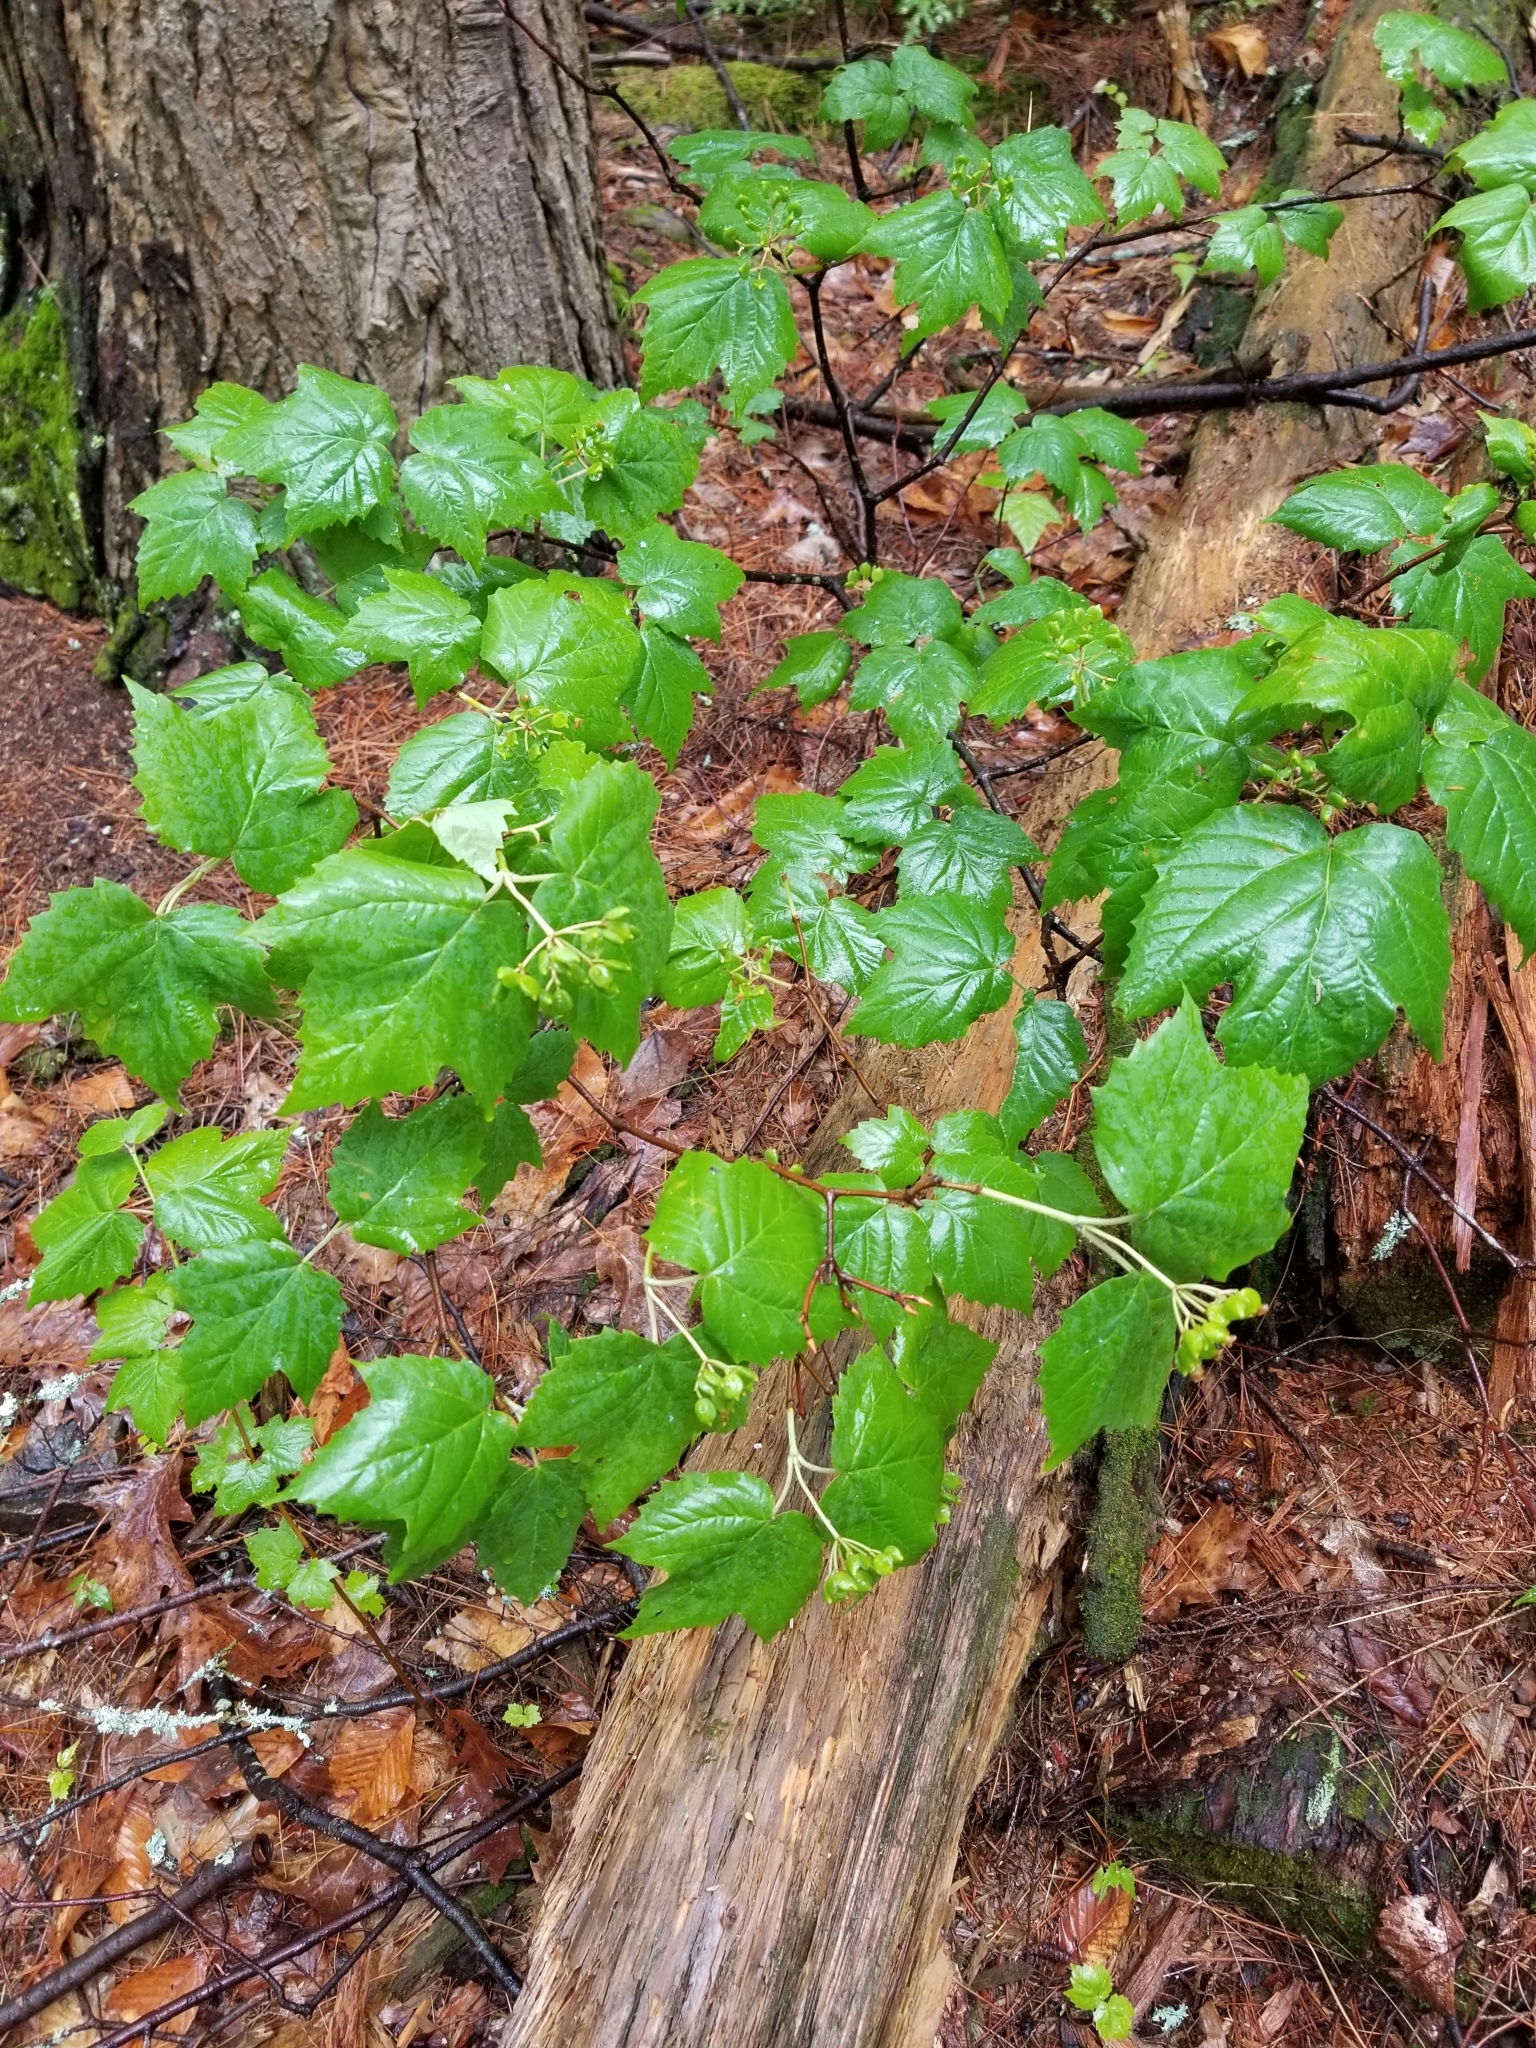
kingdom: Plantae
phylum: Tracheophyta
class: Magnoliopsida
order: Dipsacales
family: Viburnaceae
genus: Viburnum
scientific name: Viburnum acerifolium
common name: Dockmackie
